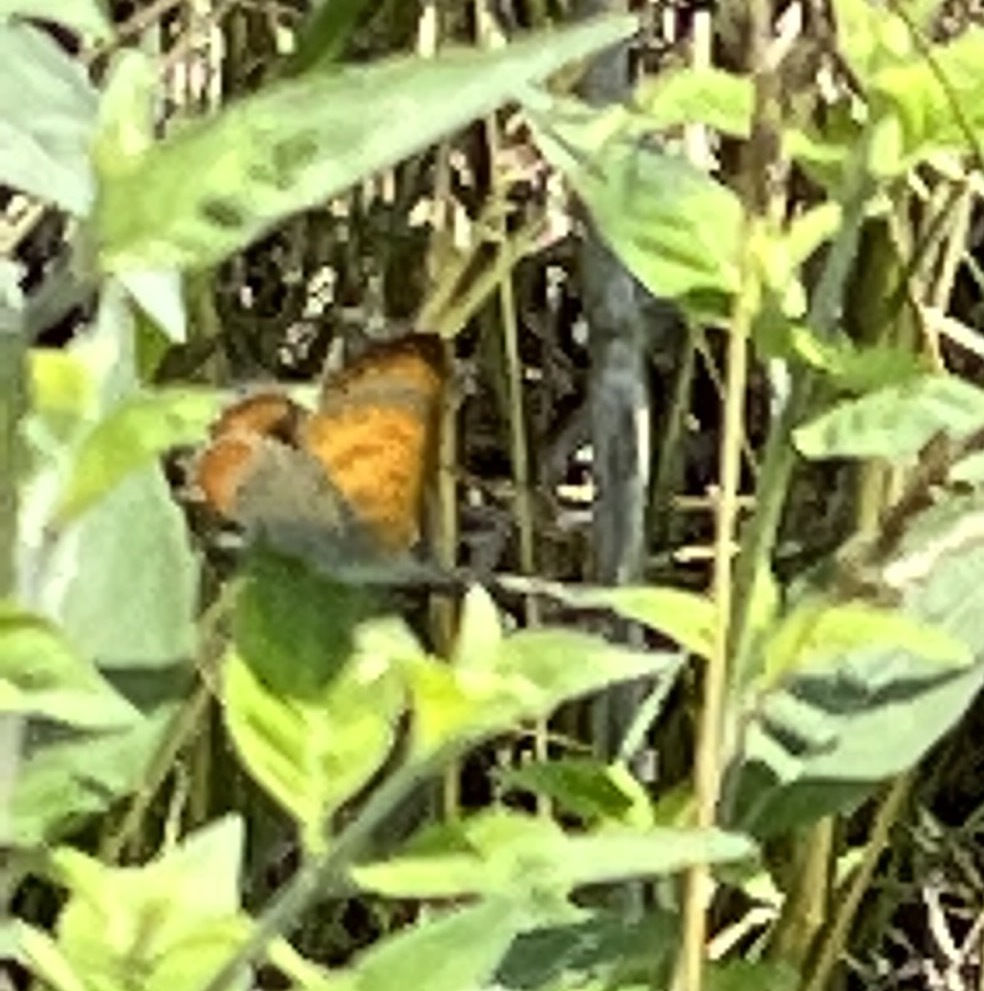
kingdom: Animalia
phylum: Arthropoda
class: Insecta
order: Lepidoptera
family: Lycaenidae
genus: Tharsalea
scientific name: Tharsalea hyllus
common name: Bronze copper
